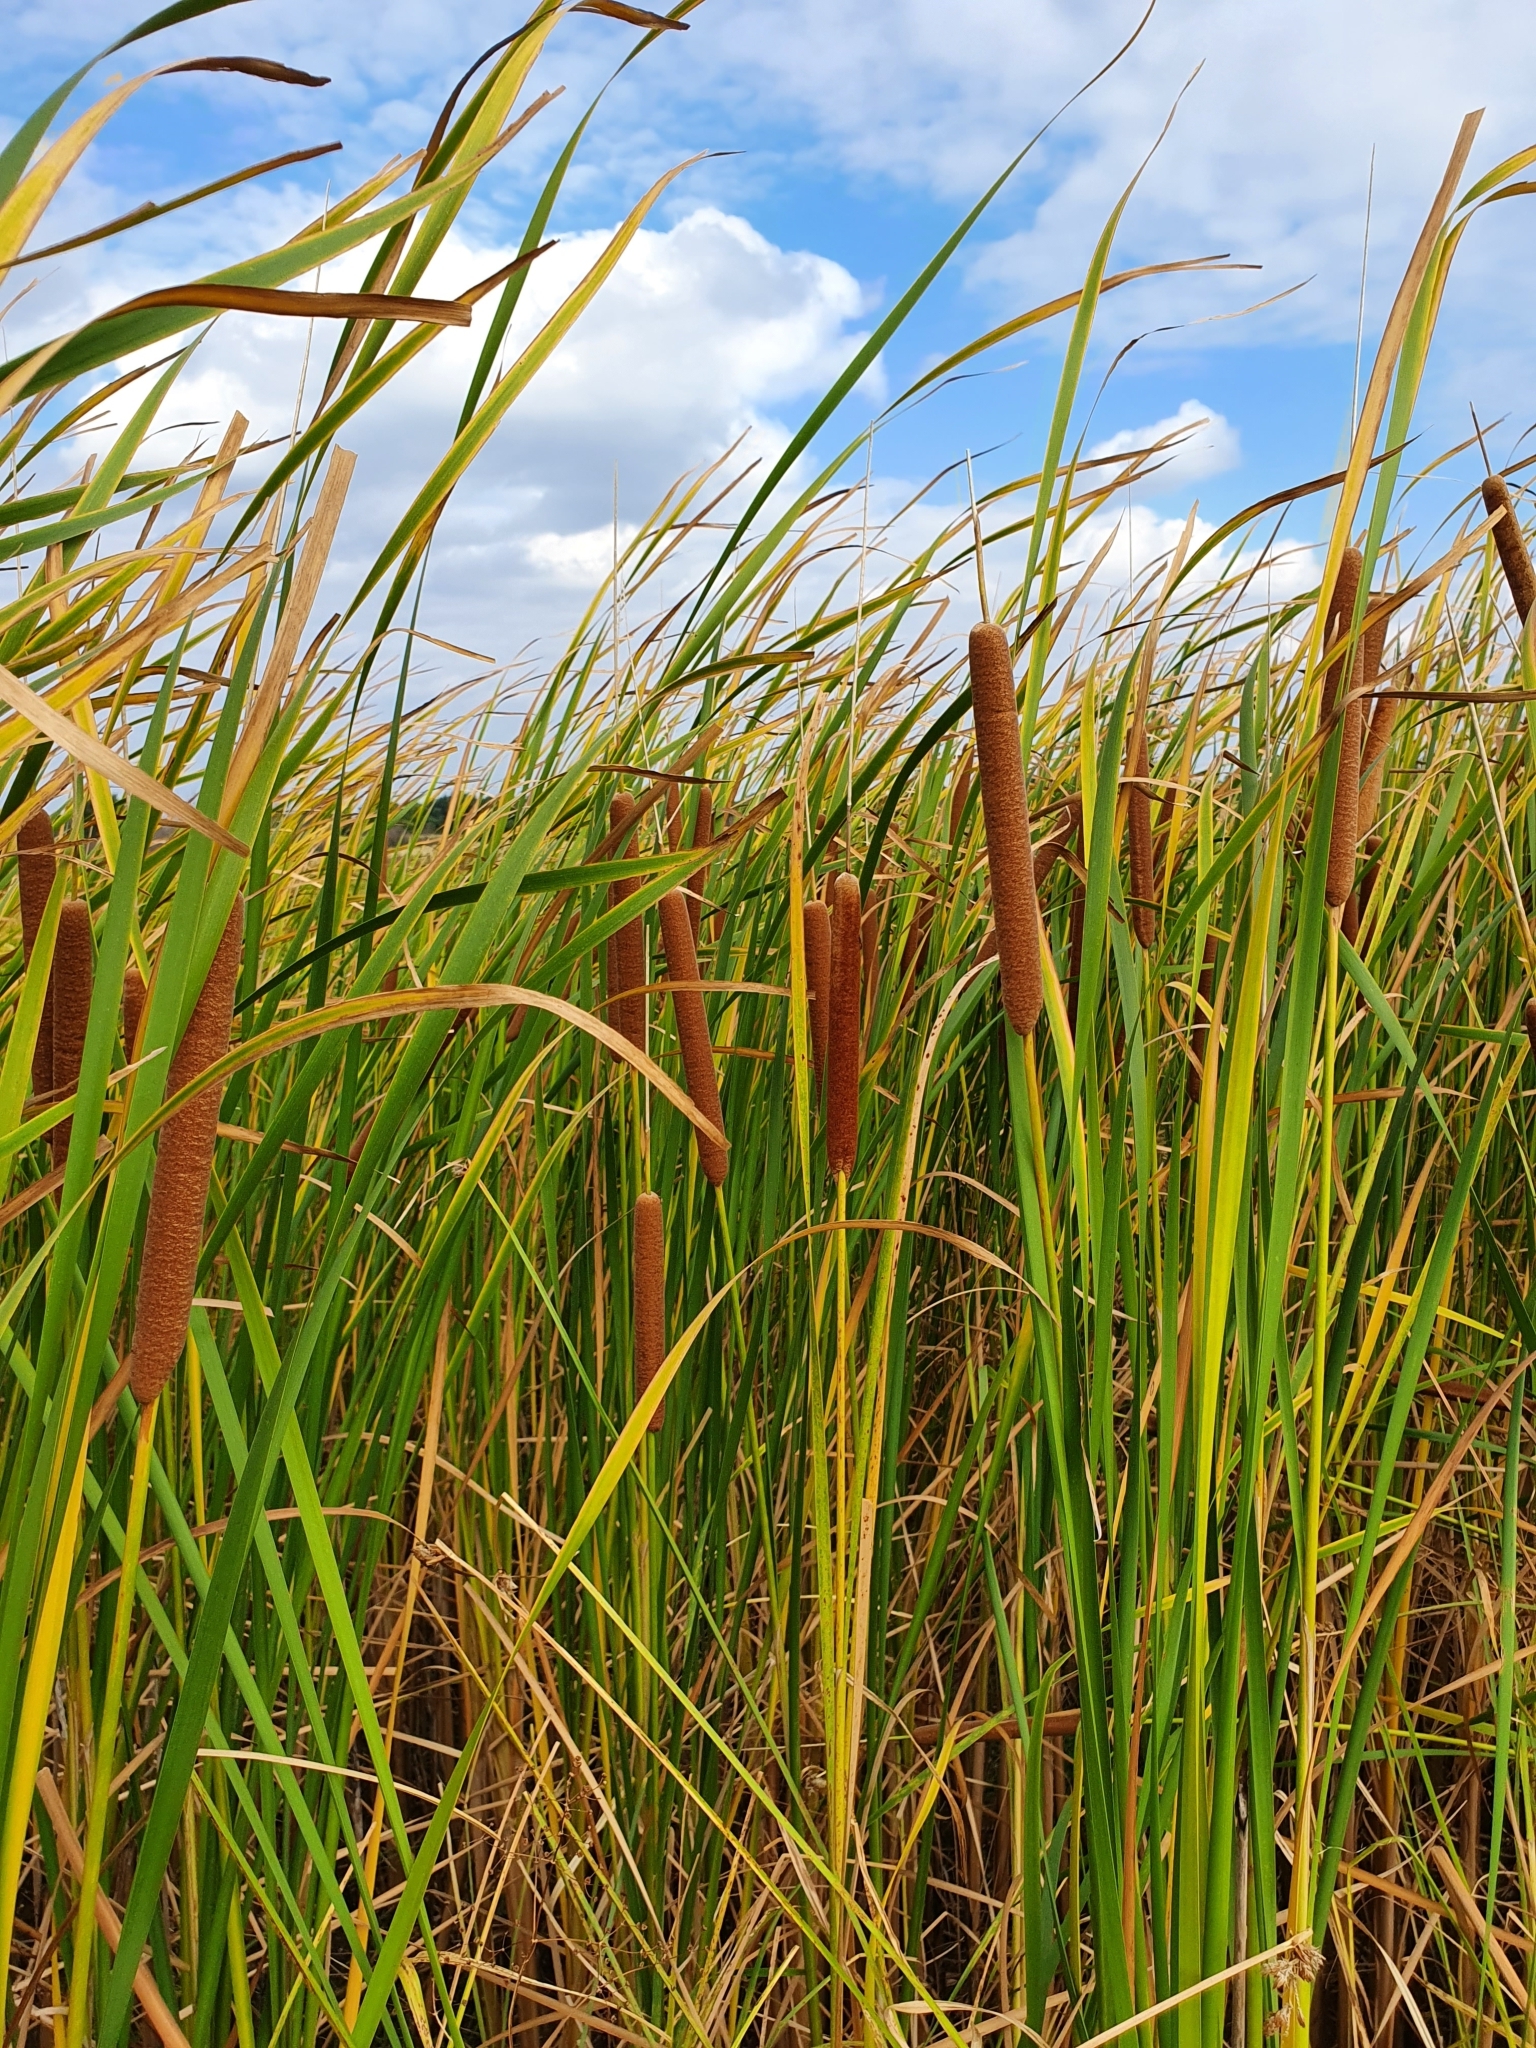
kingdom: Plantae
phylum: Tracheophyta
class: Liliopsida
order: Poales
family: Typhaceae
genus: Typha
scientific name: Typha angustifolia
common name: Lesser bulrush
